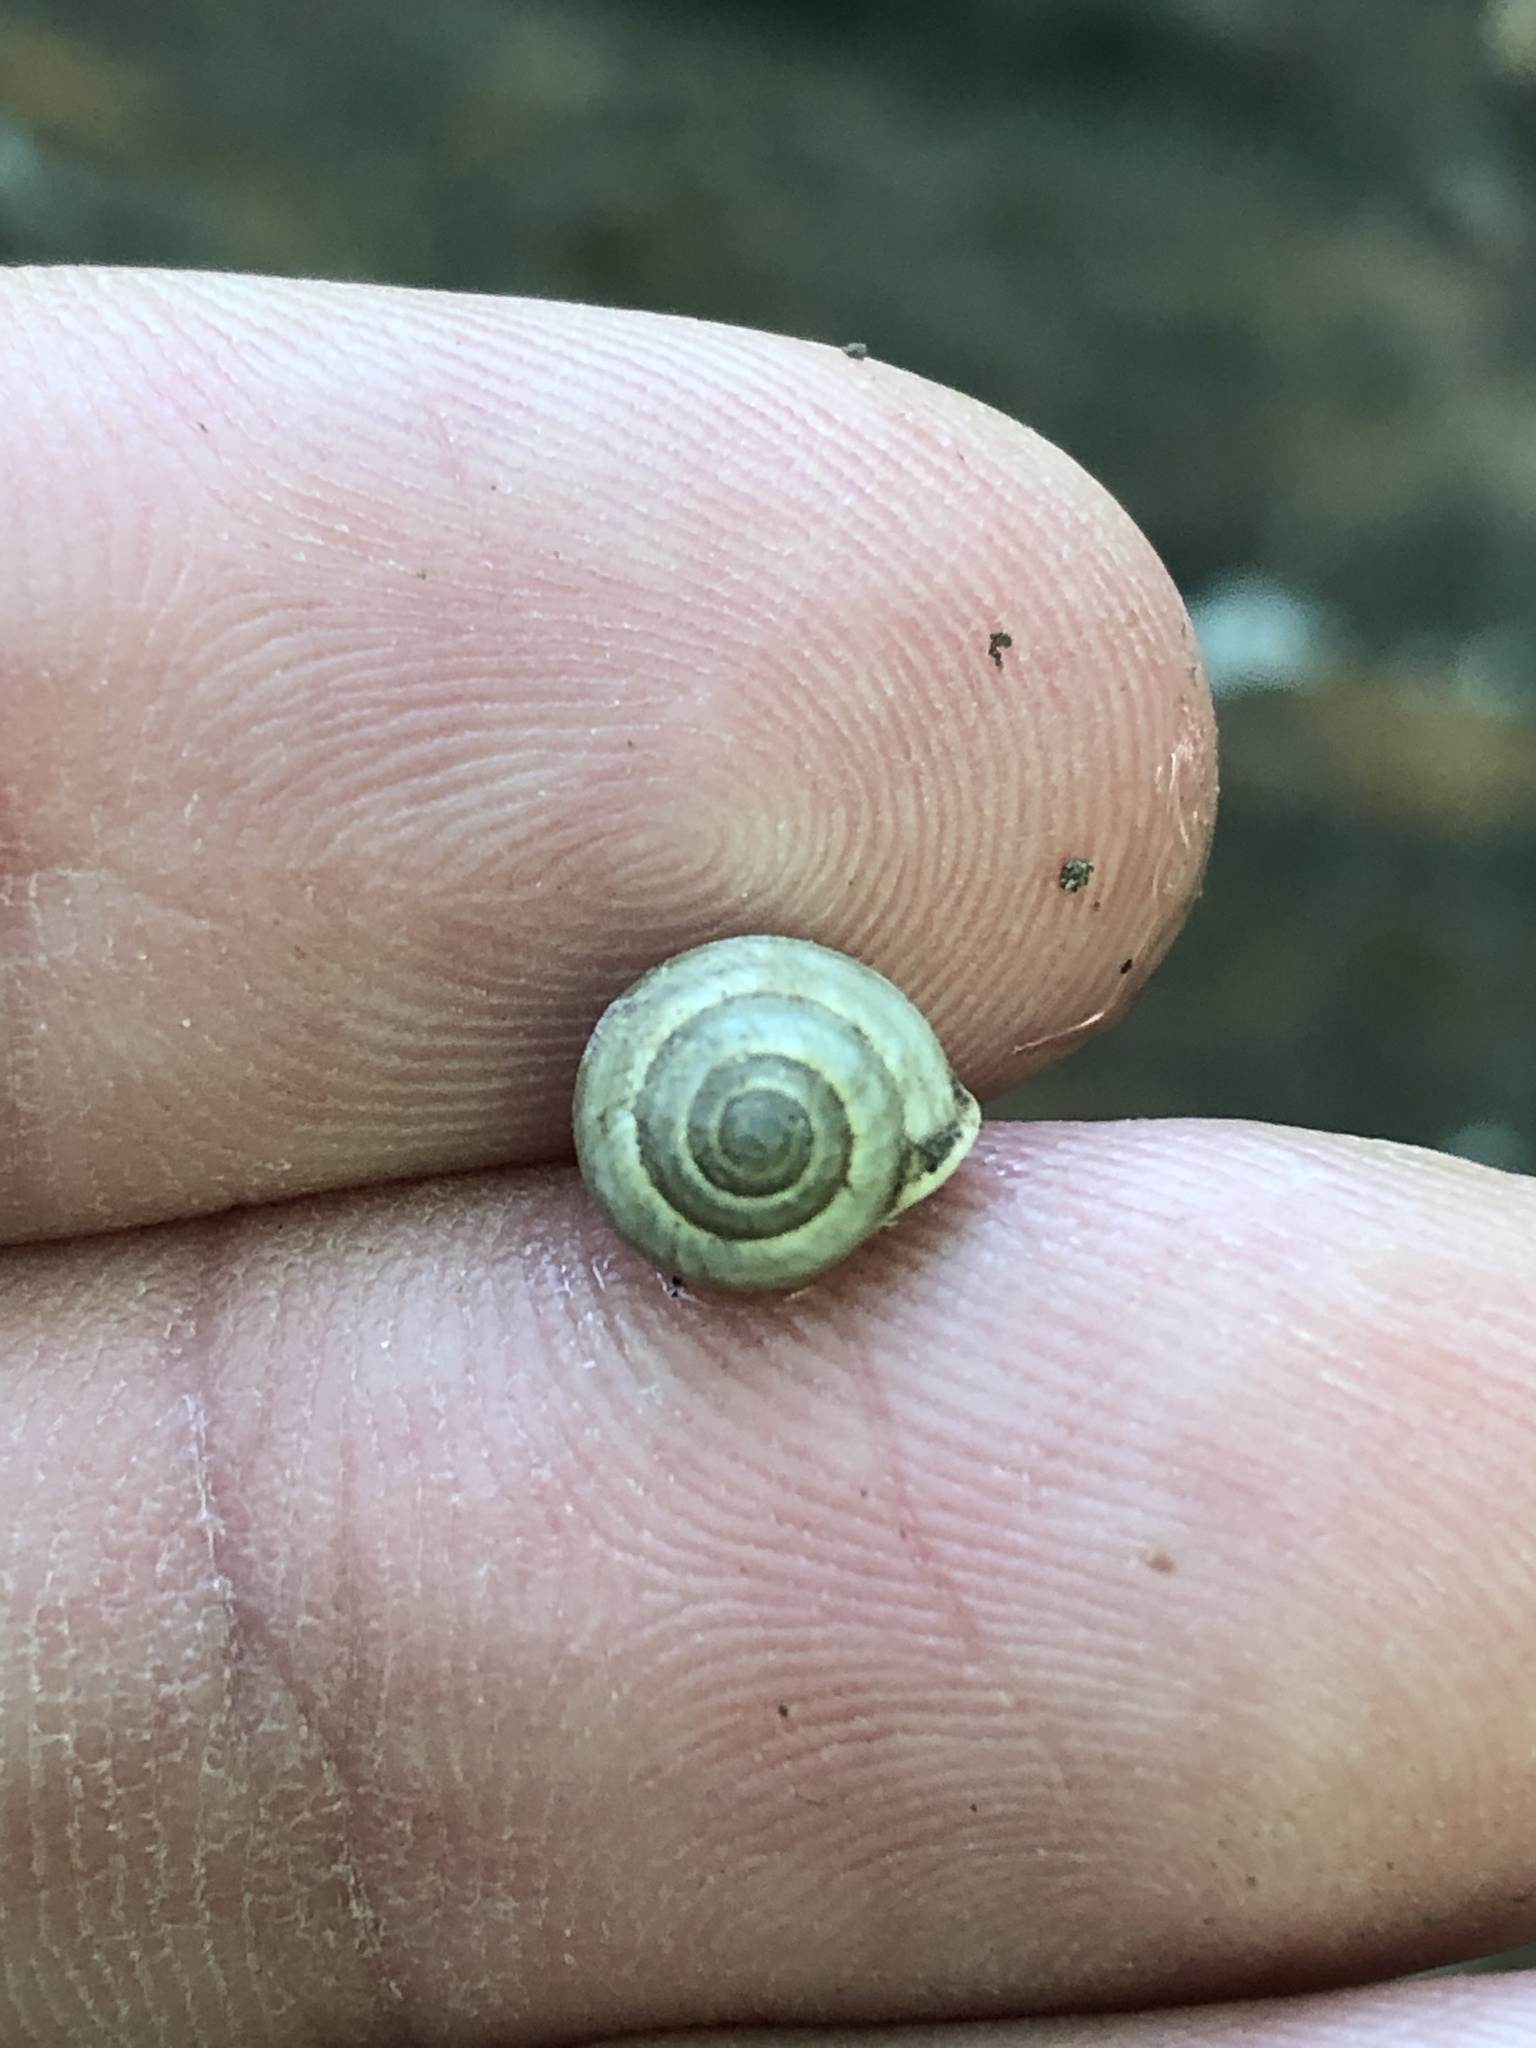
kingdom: Animalia
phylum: Mollusca
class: Gastropoda
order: Cycloneritida
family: Helicinidae
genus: Helicina
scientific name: Helicina orbiculata
